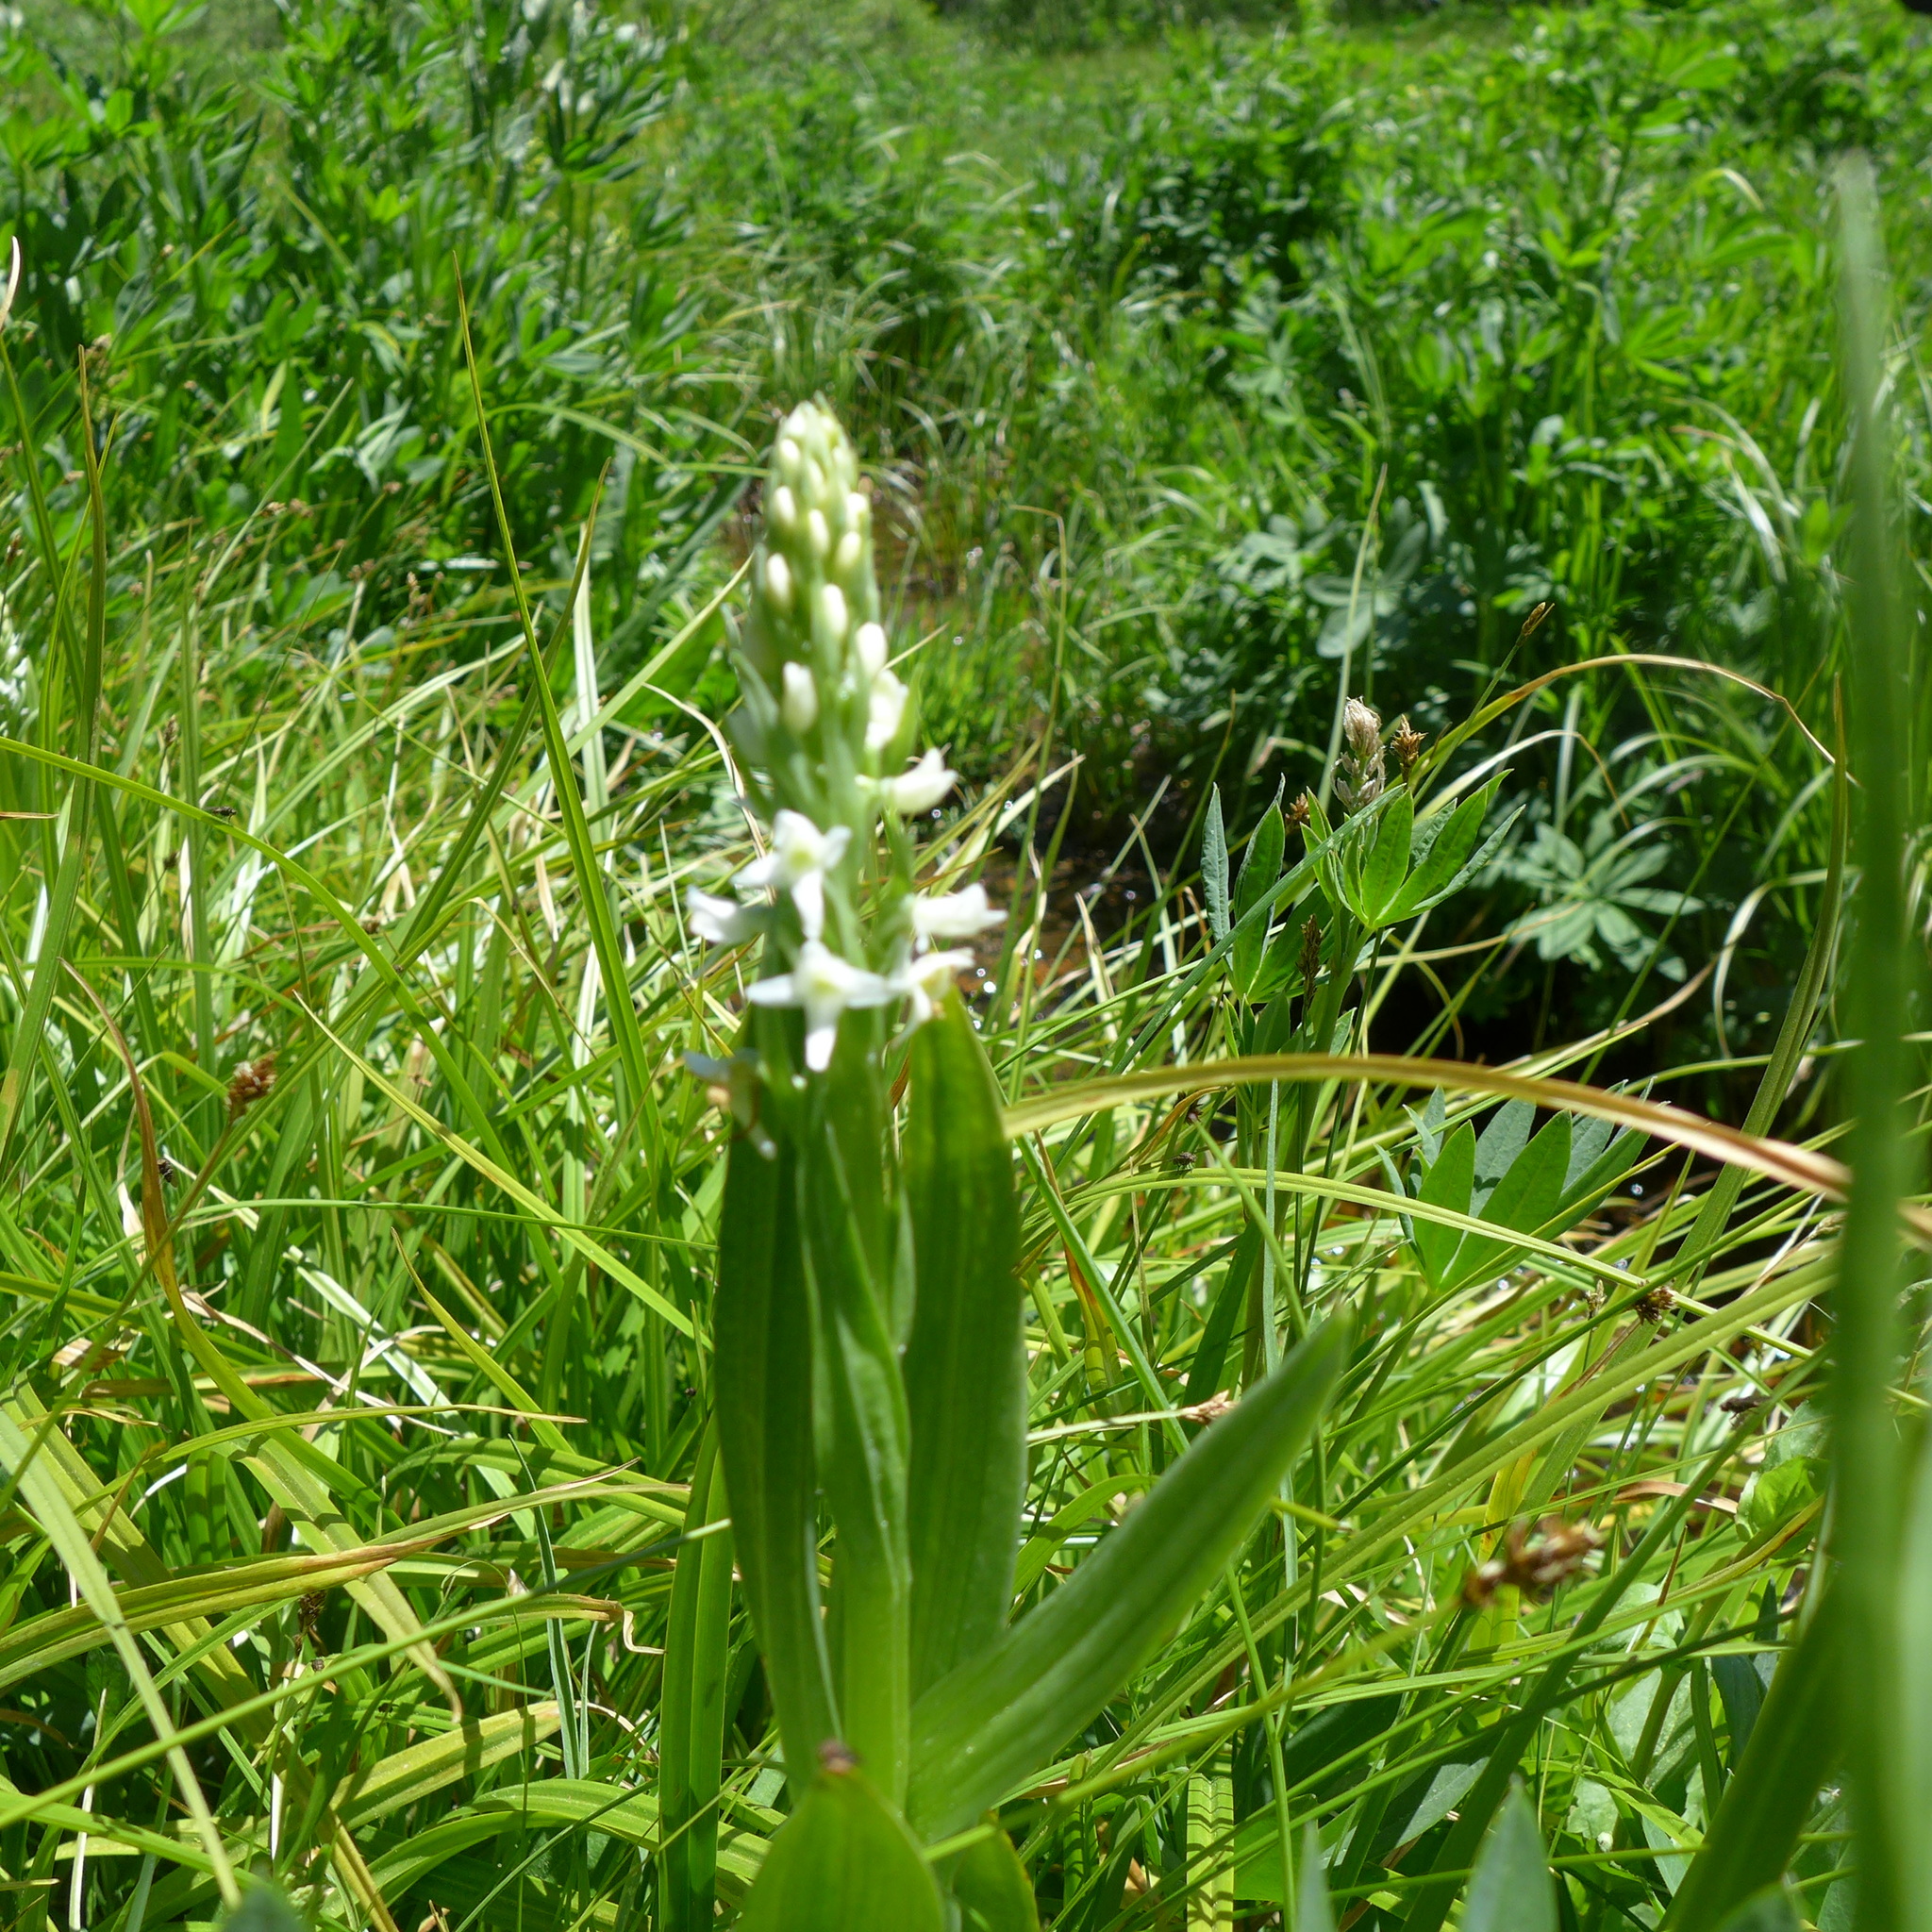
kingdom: Plantae
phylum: Tracheophyta
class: Liliopsida
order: Asparagales
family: Orchidaceae
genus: Platanthera
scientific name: Platanthera dilatata
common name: Bog candles
